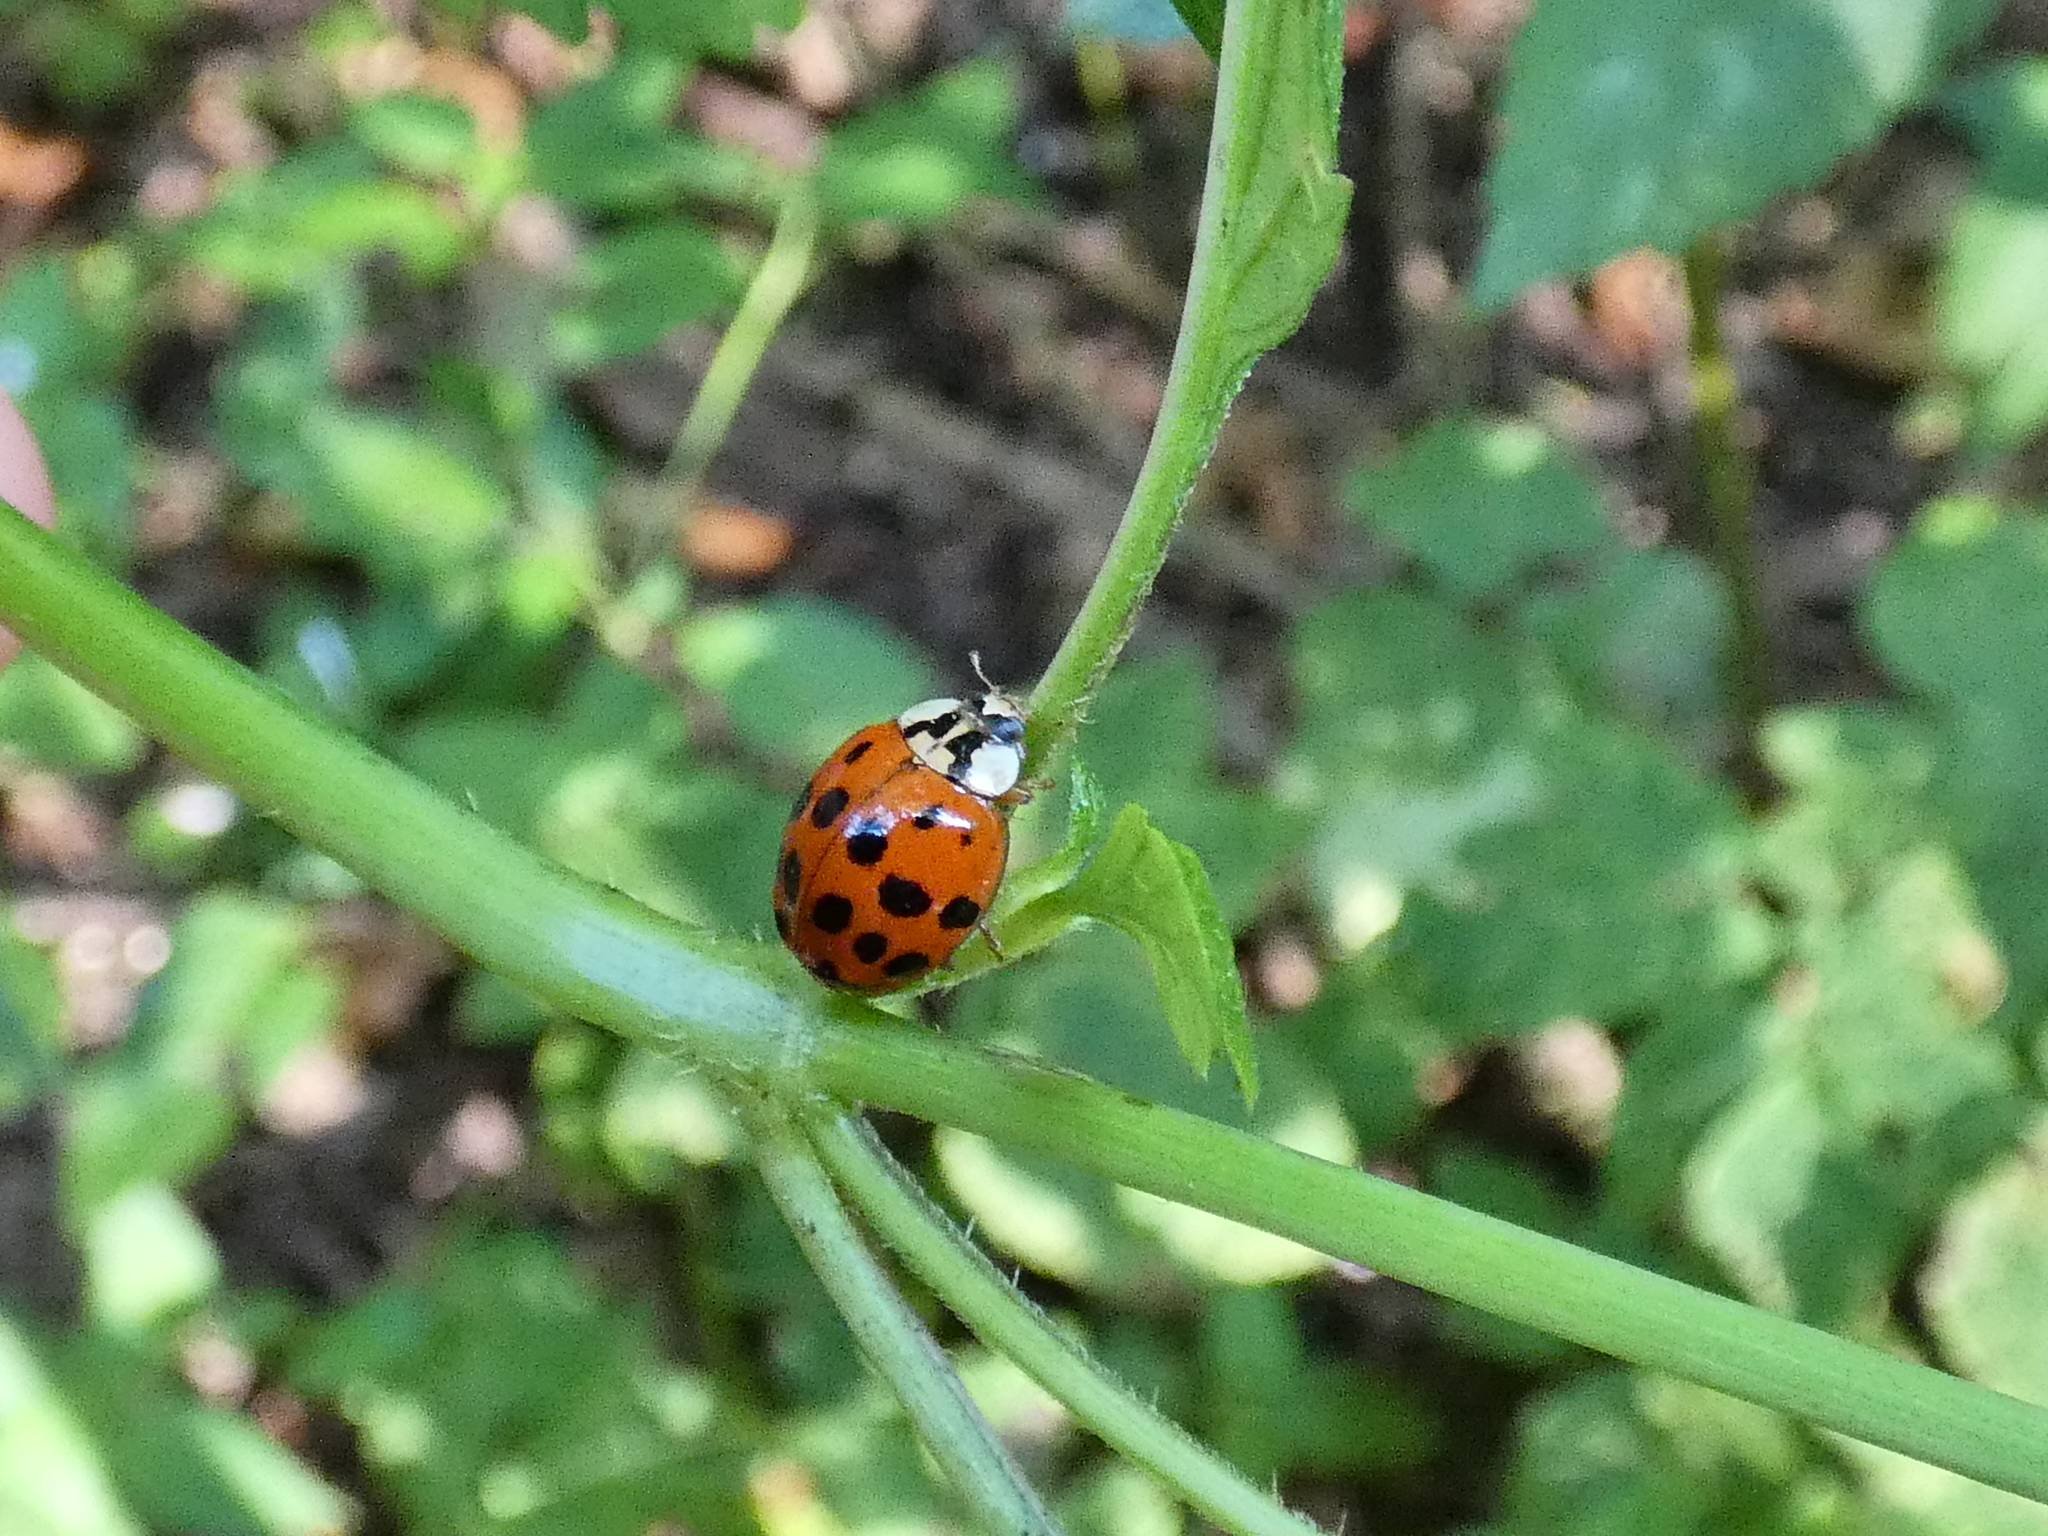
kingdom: Animalia
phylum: Arthropoda
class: Insecta
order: Coleoptera
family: Coccinellidae
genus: Harmonia
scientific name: Harmonia axyridis
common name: Harlequin ladybird
